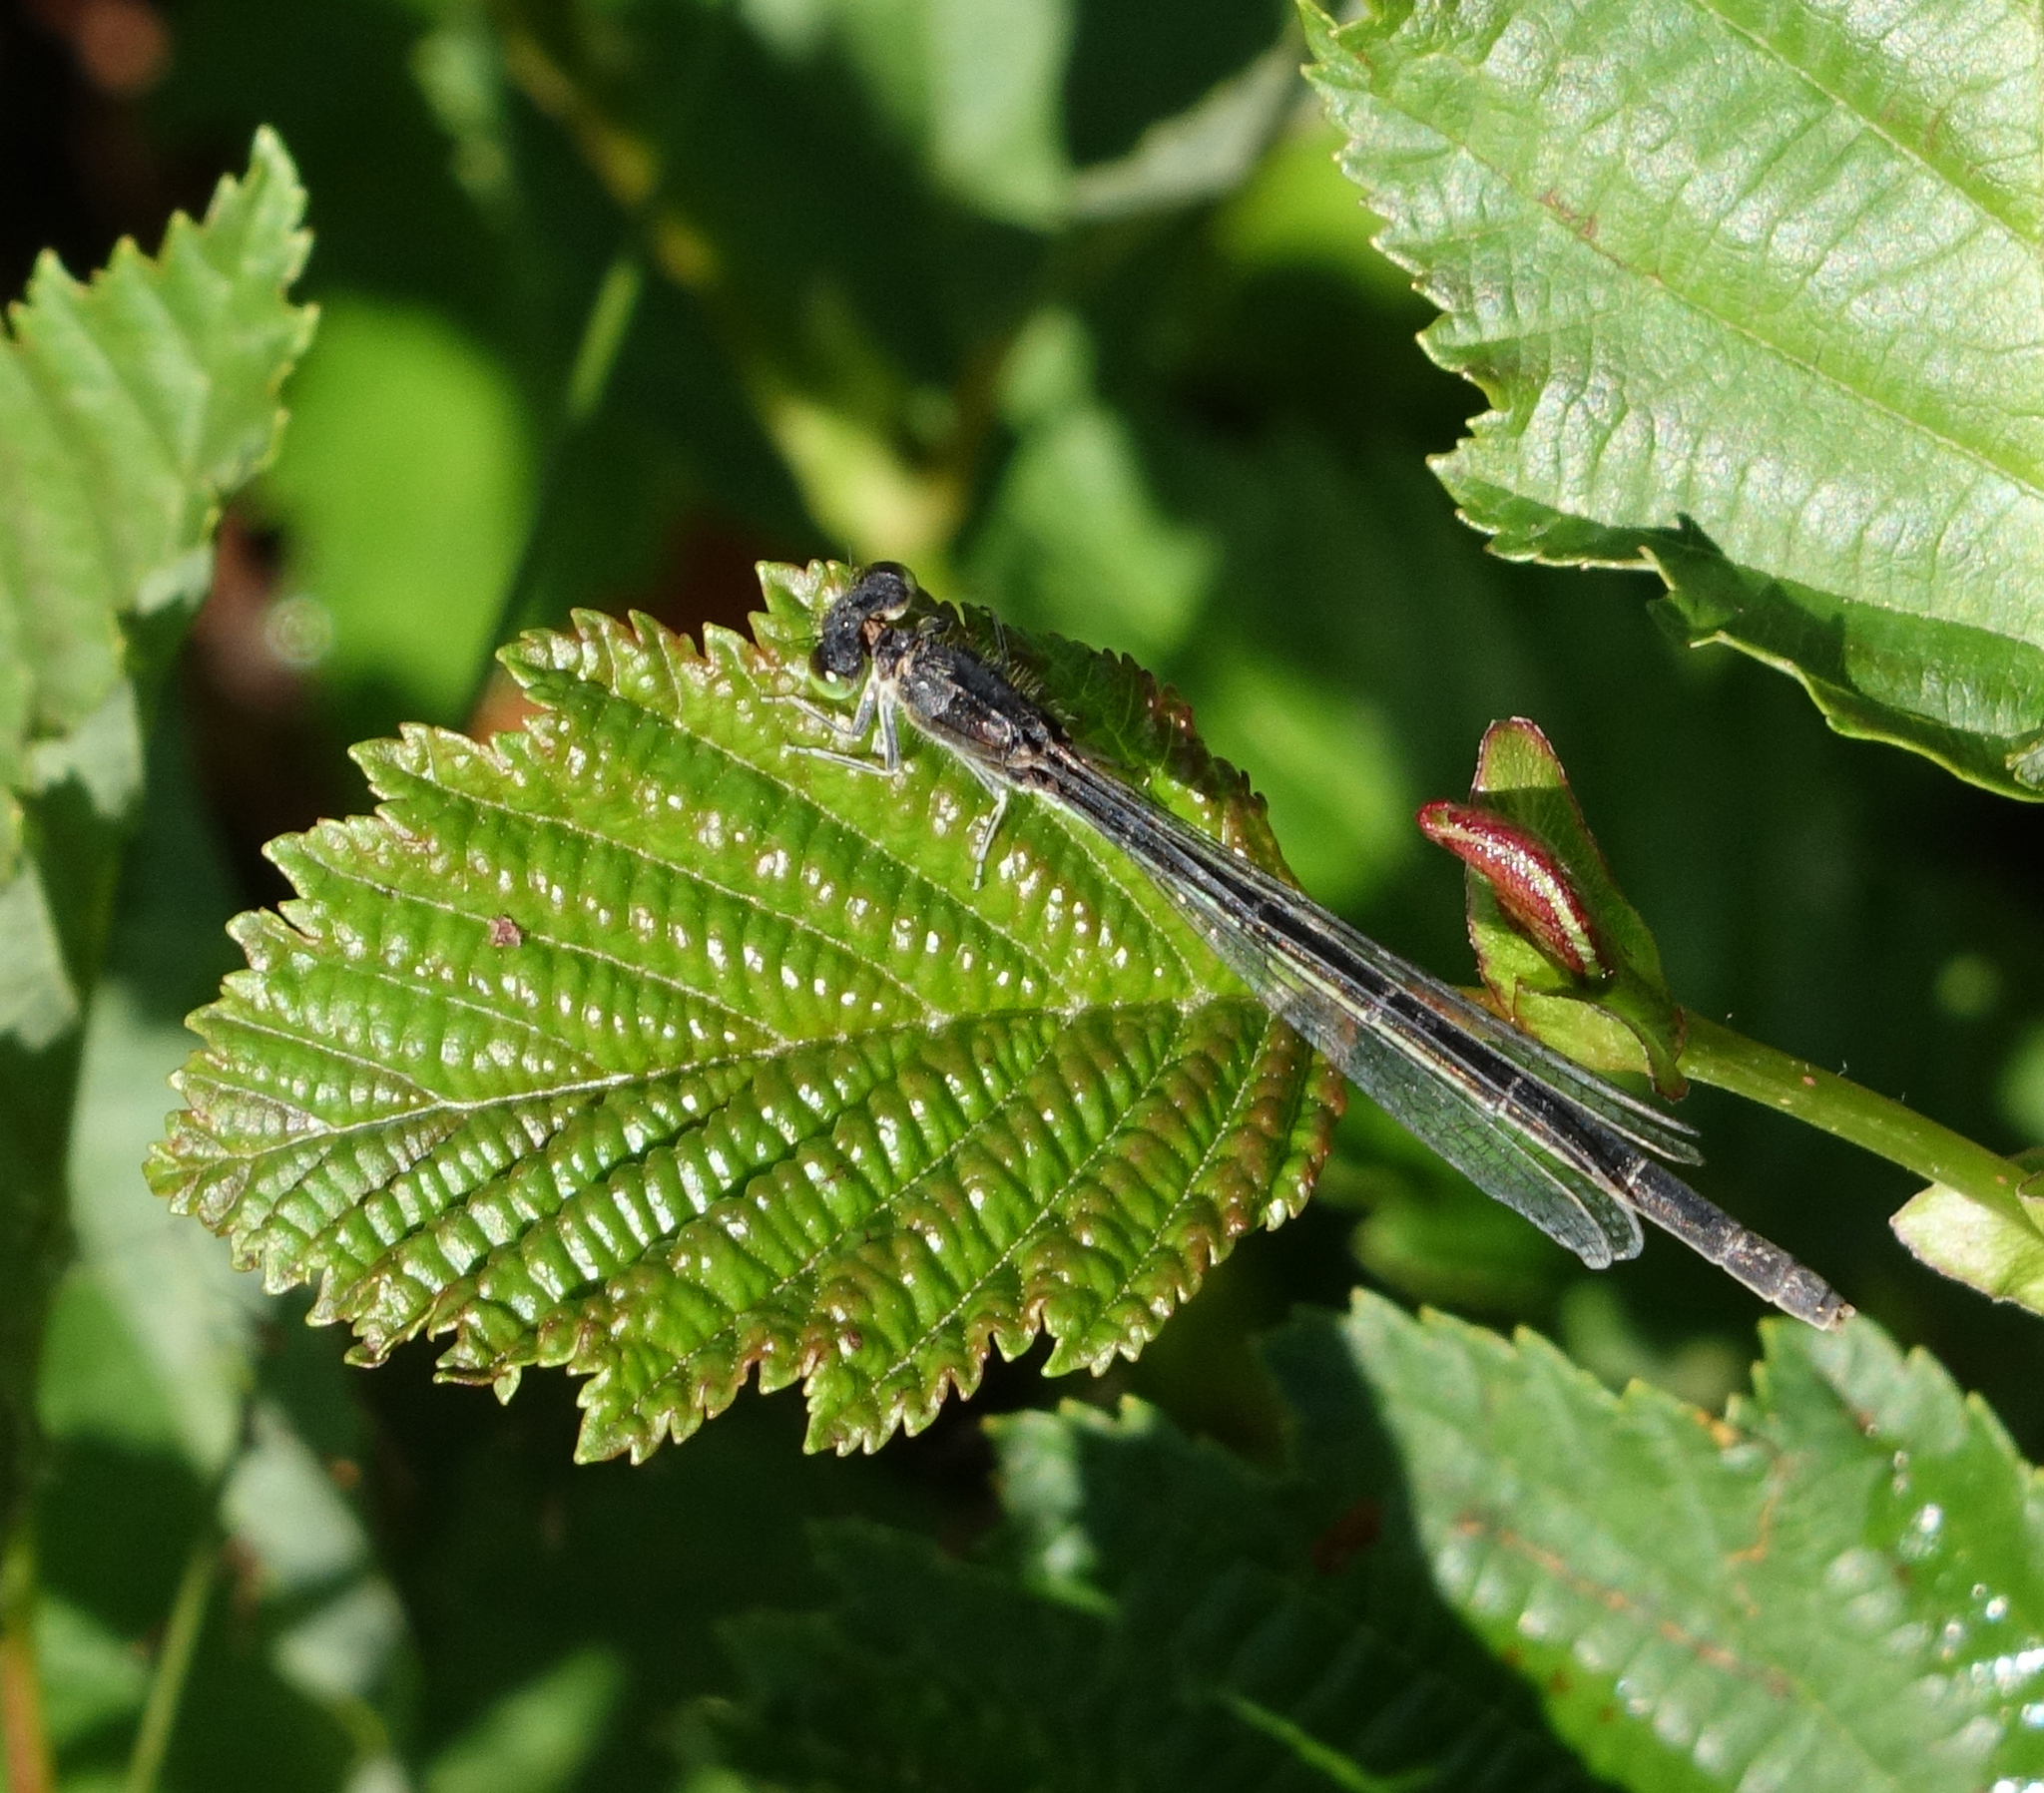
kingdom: Animalia
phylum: Arthropoda
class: Insecta
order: Odonata
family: Coenagrionidae
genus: Ischnura
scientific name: Ischnura pumilio
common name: Scarce blue-tailed damselfly
